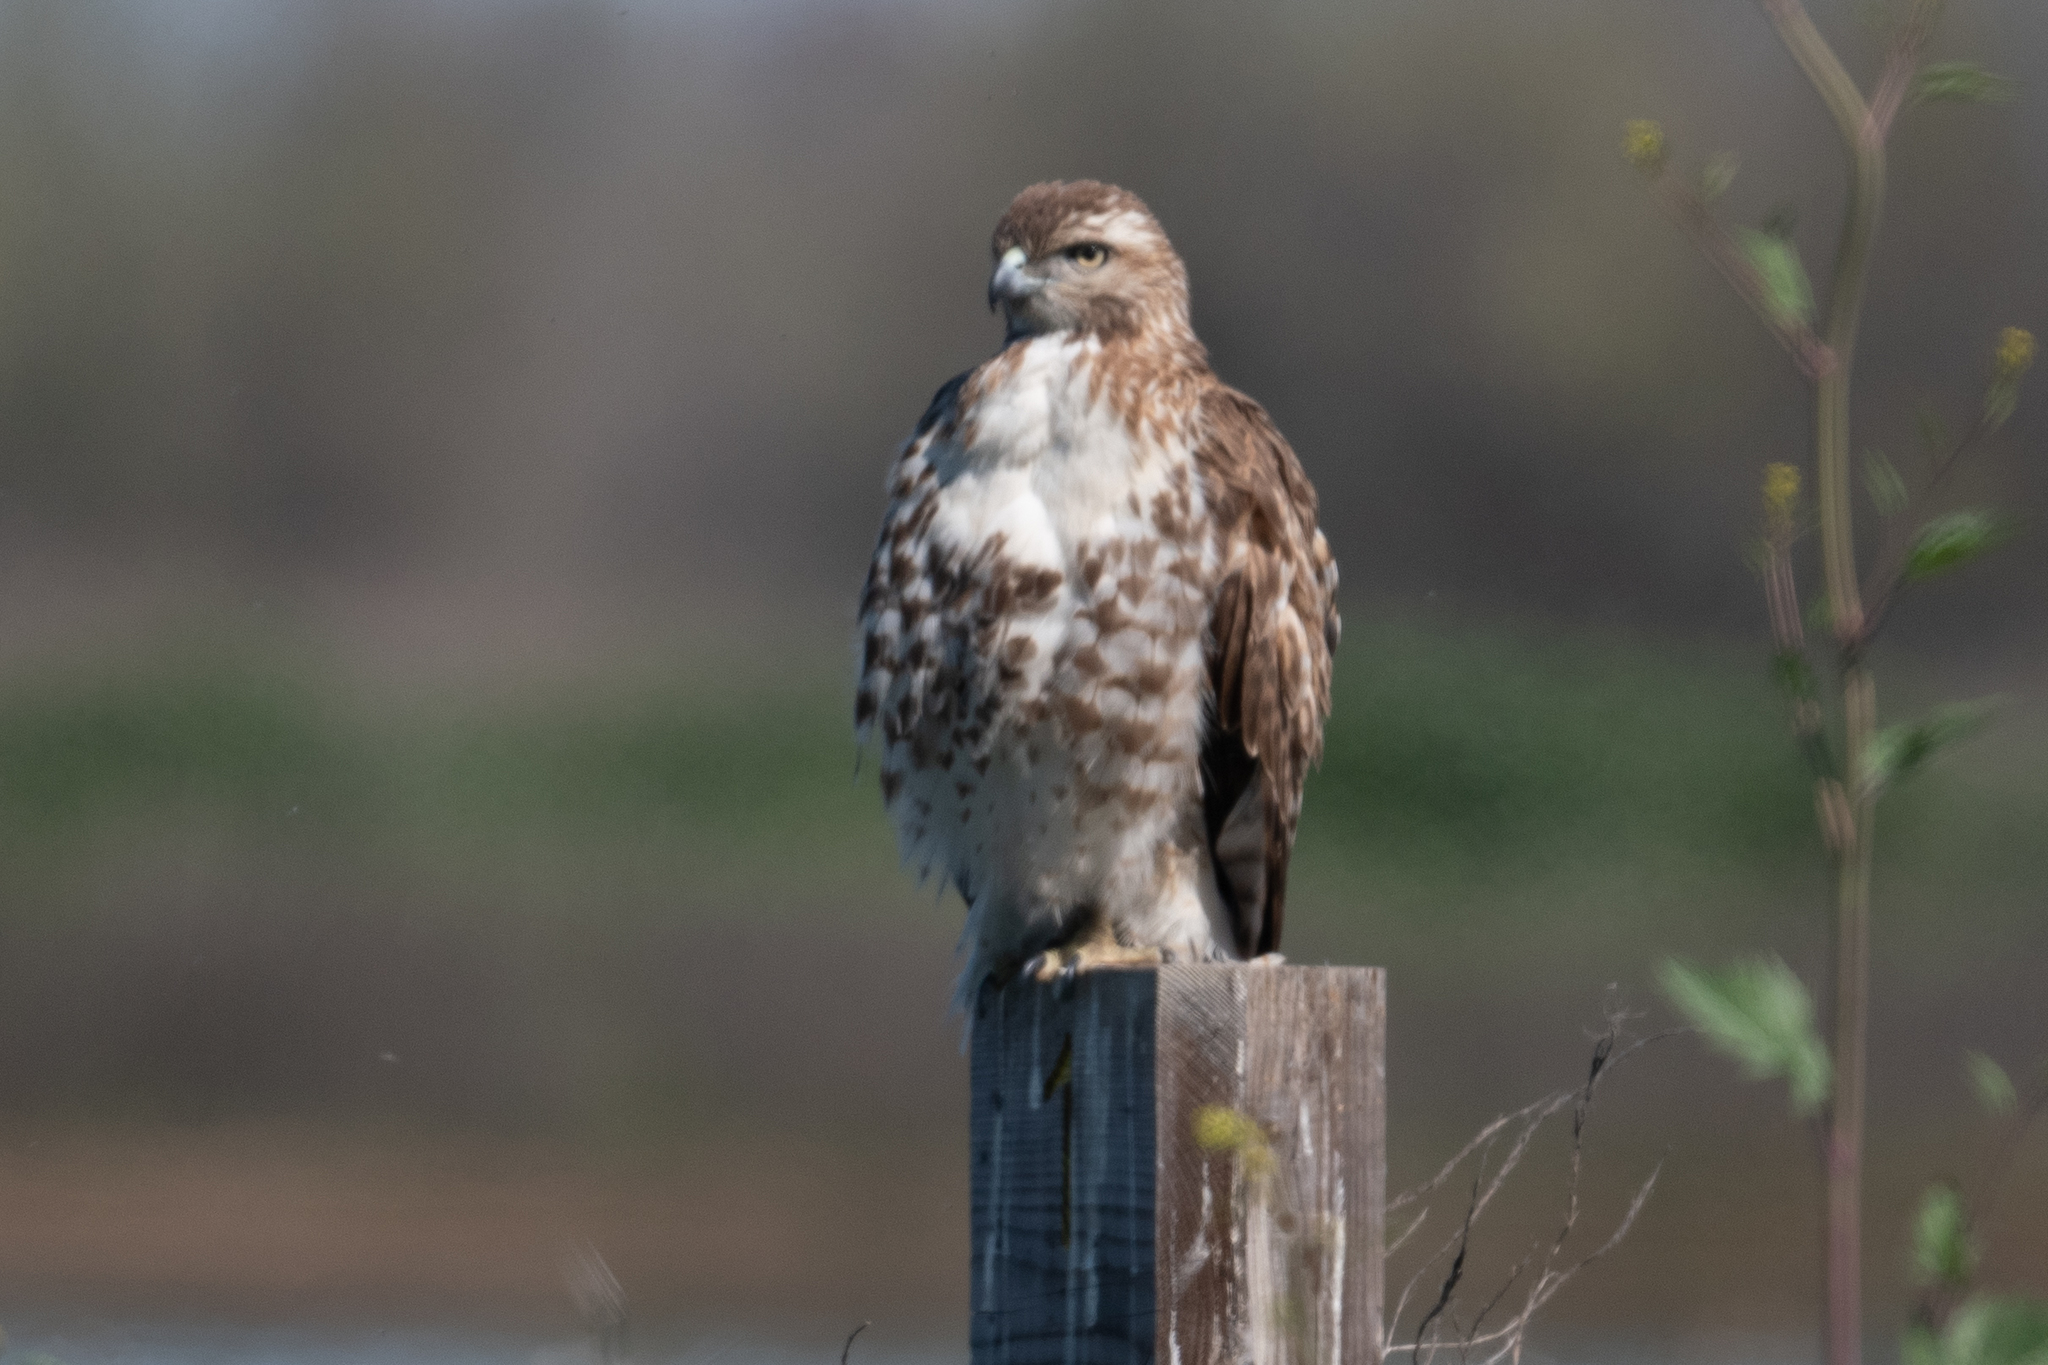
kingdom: Animalia
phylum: Chordata
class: Aves
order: Accipitriformes
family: Accipitridae
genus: Buteo
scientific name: Buteo jamaicensis
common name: Red-tailed hawk
